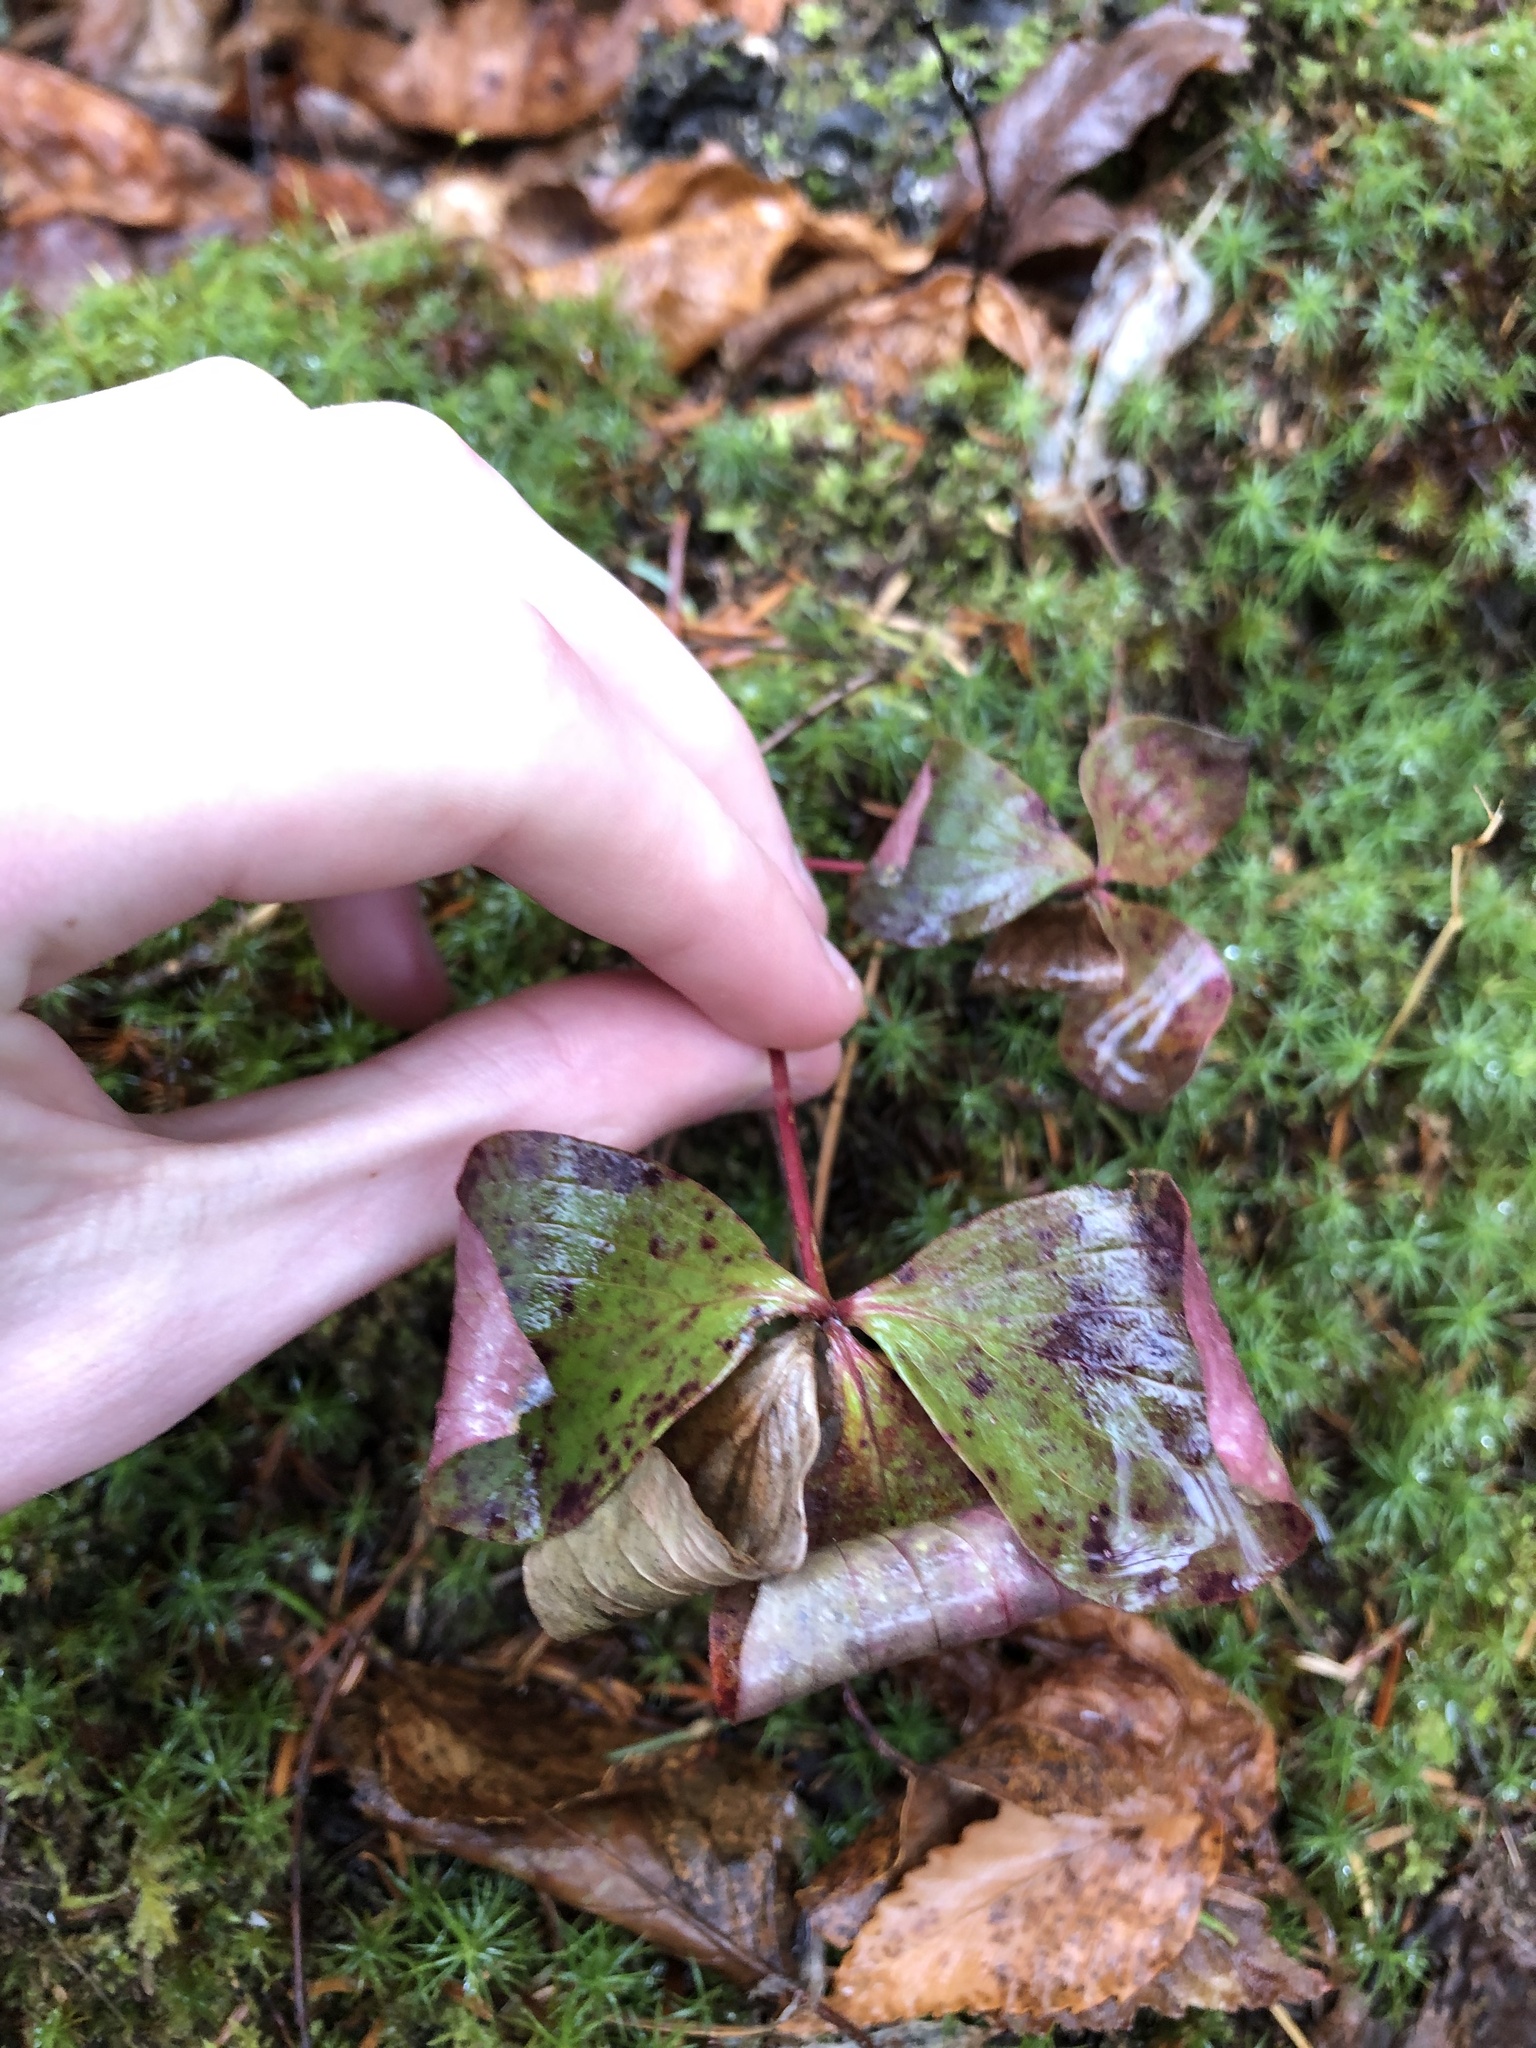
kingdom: Plantae
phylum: Tracheophyta
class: Magnoliopsida
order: Cornales
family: Cornaceae
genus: Cornus
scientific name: Cornus canadensis
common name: Creeping dogwood
